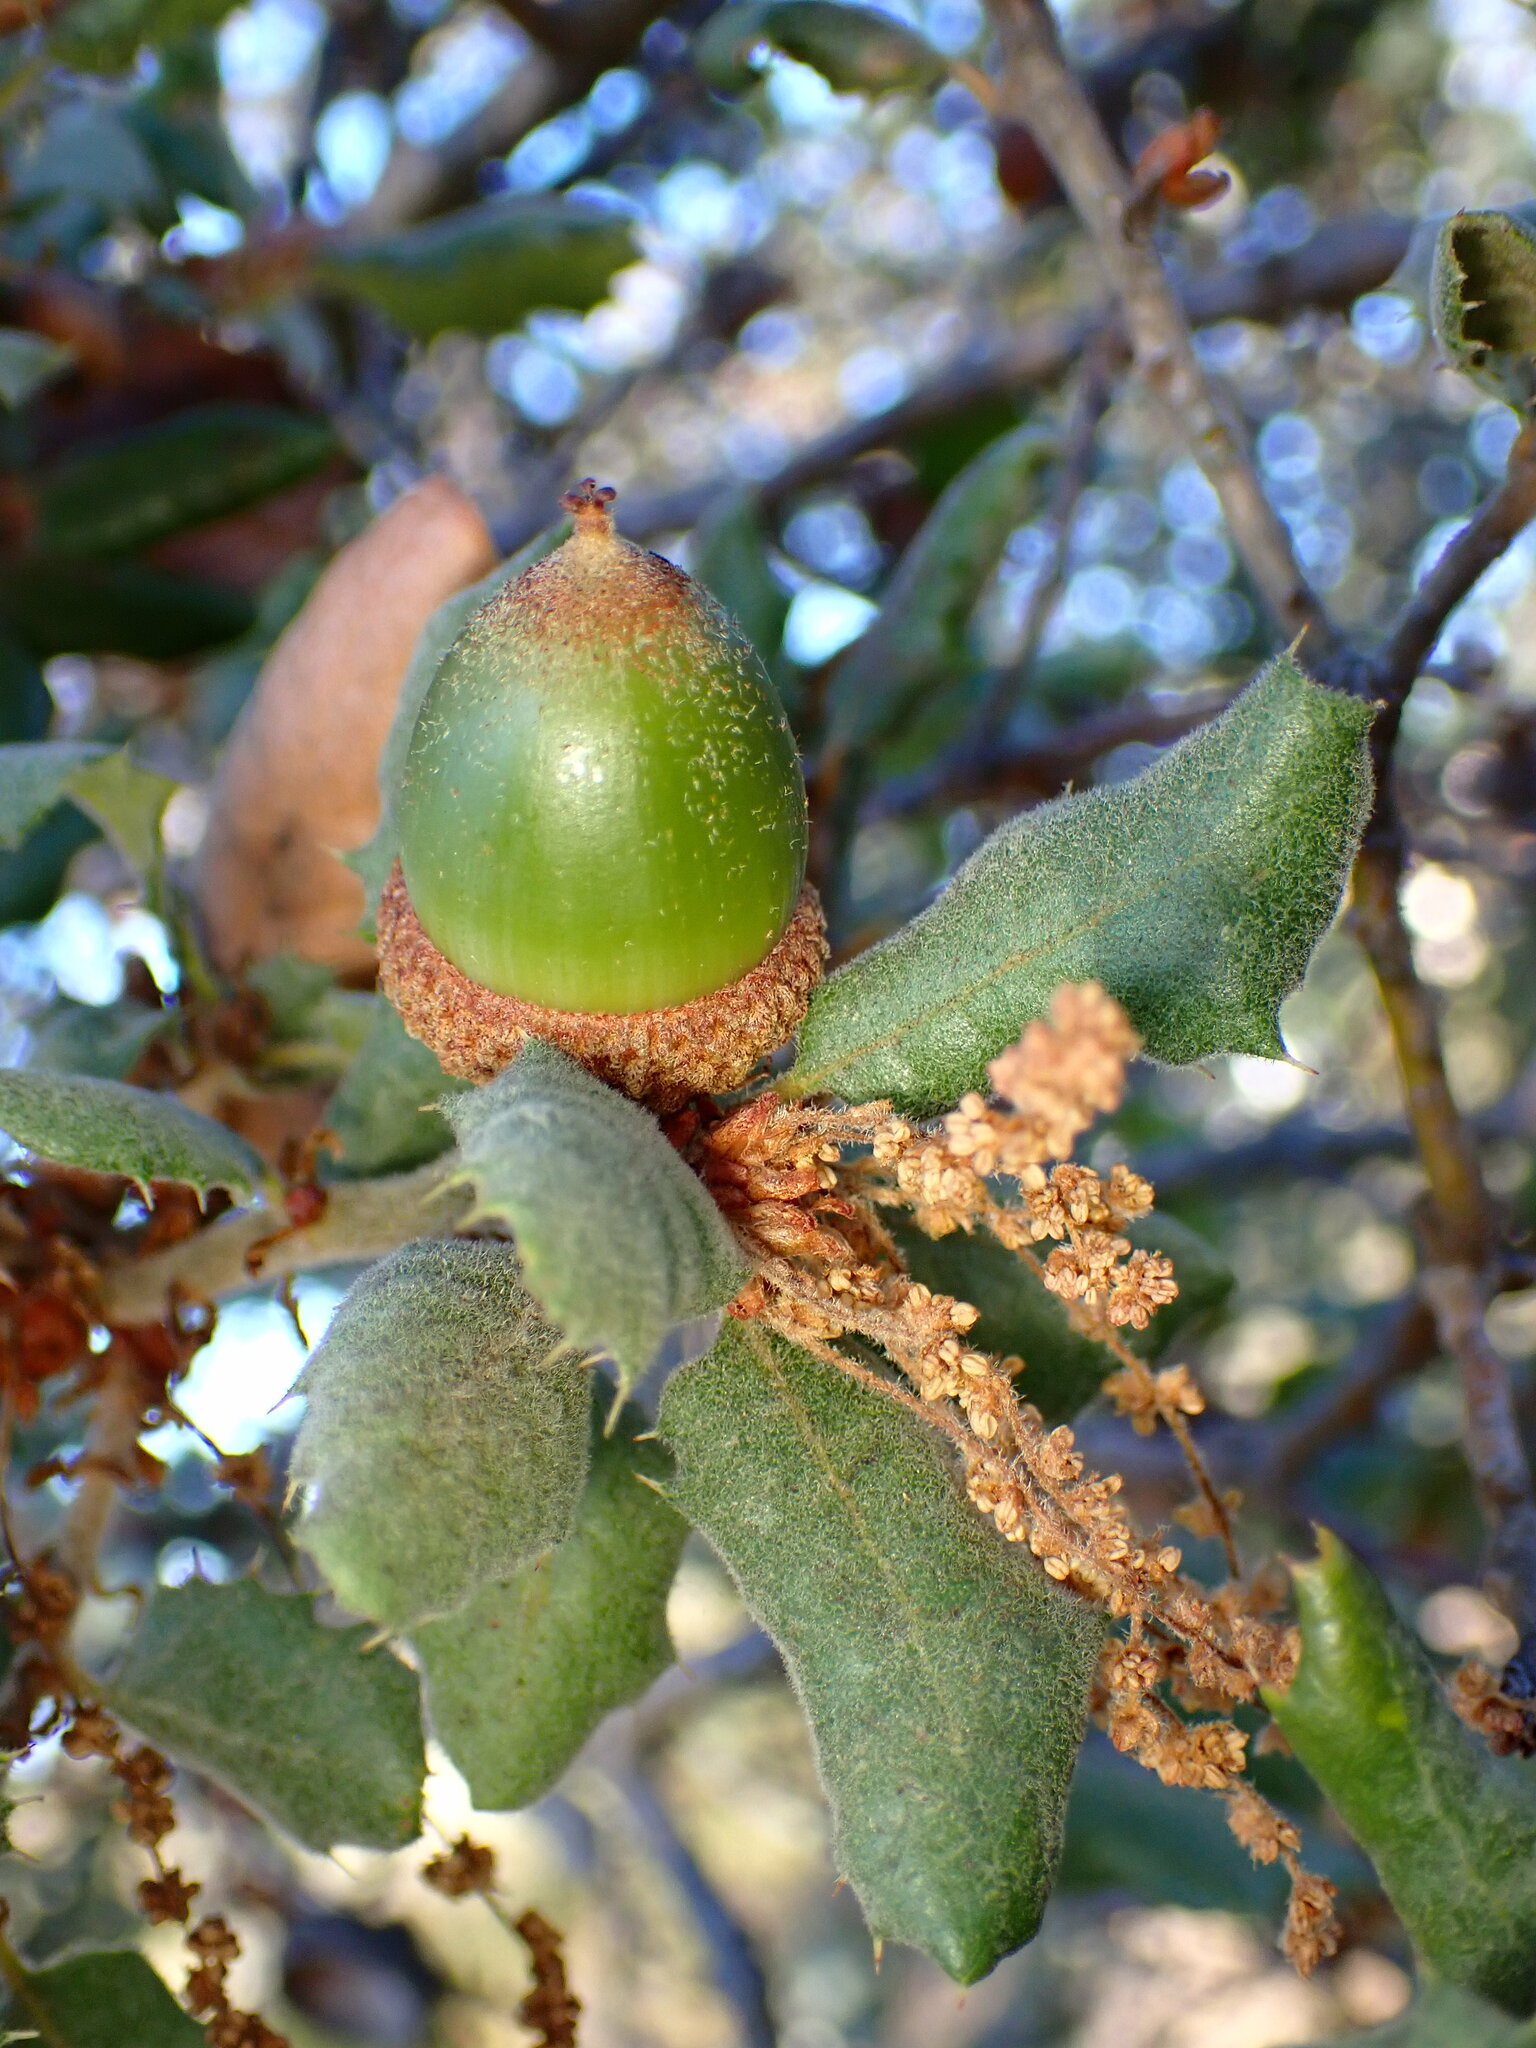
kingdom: Plantae
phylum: Tracheophyta
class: Magnoliopsida
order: Fagales
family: Fagaceae
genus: Quercus
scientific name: Quercus durata
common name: Leather oak
